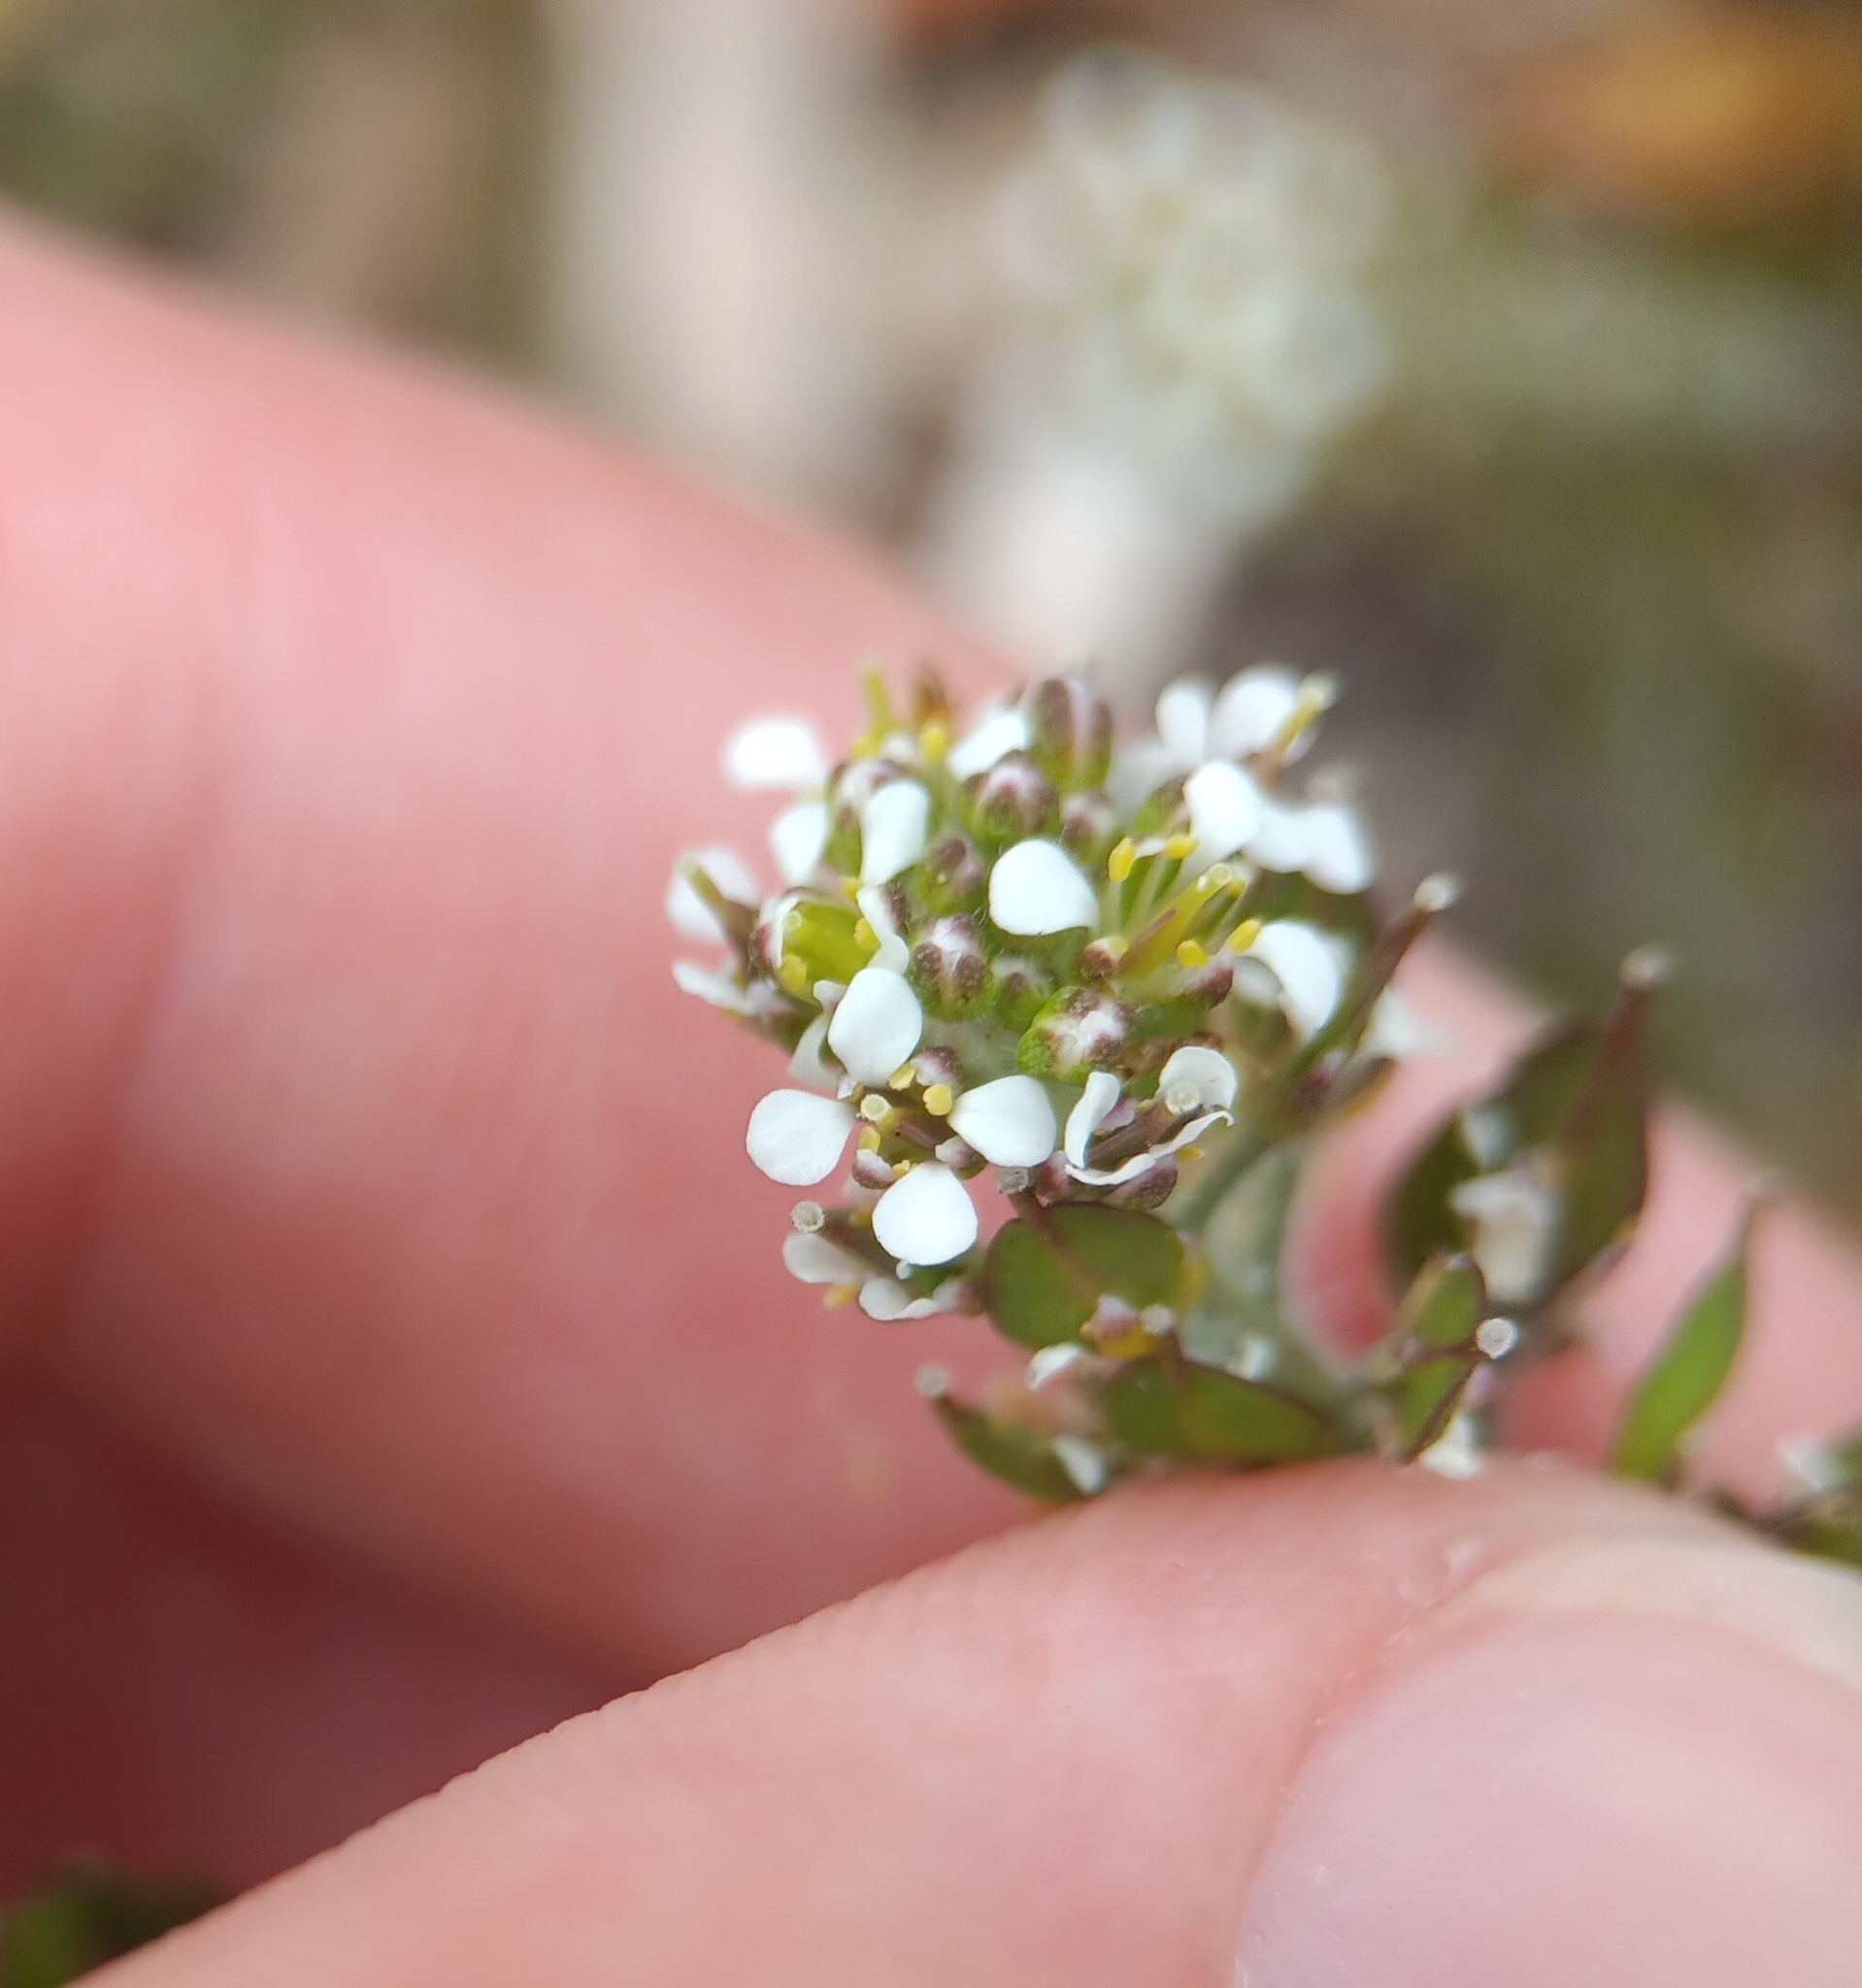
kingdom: Plantae
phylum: Tracheophyta
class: Magnoliopsida
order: Brassicales
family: Brassicaceae
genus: Lepidium
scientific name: Lepidium heterophyllum
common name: Smith's pepperwort
